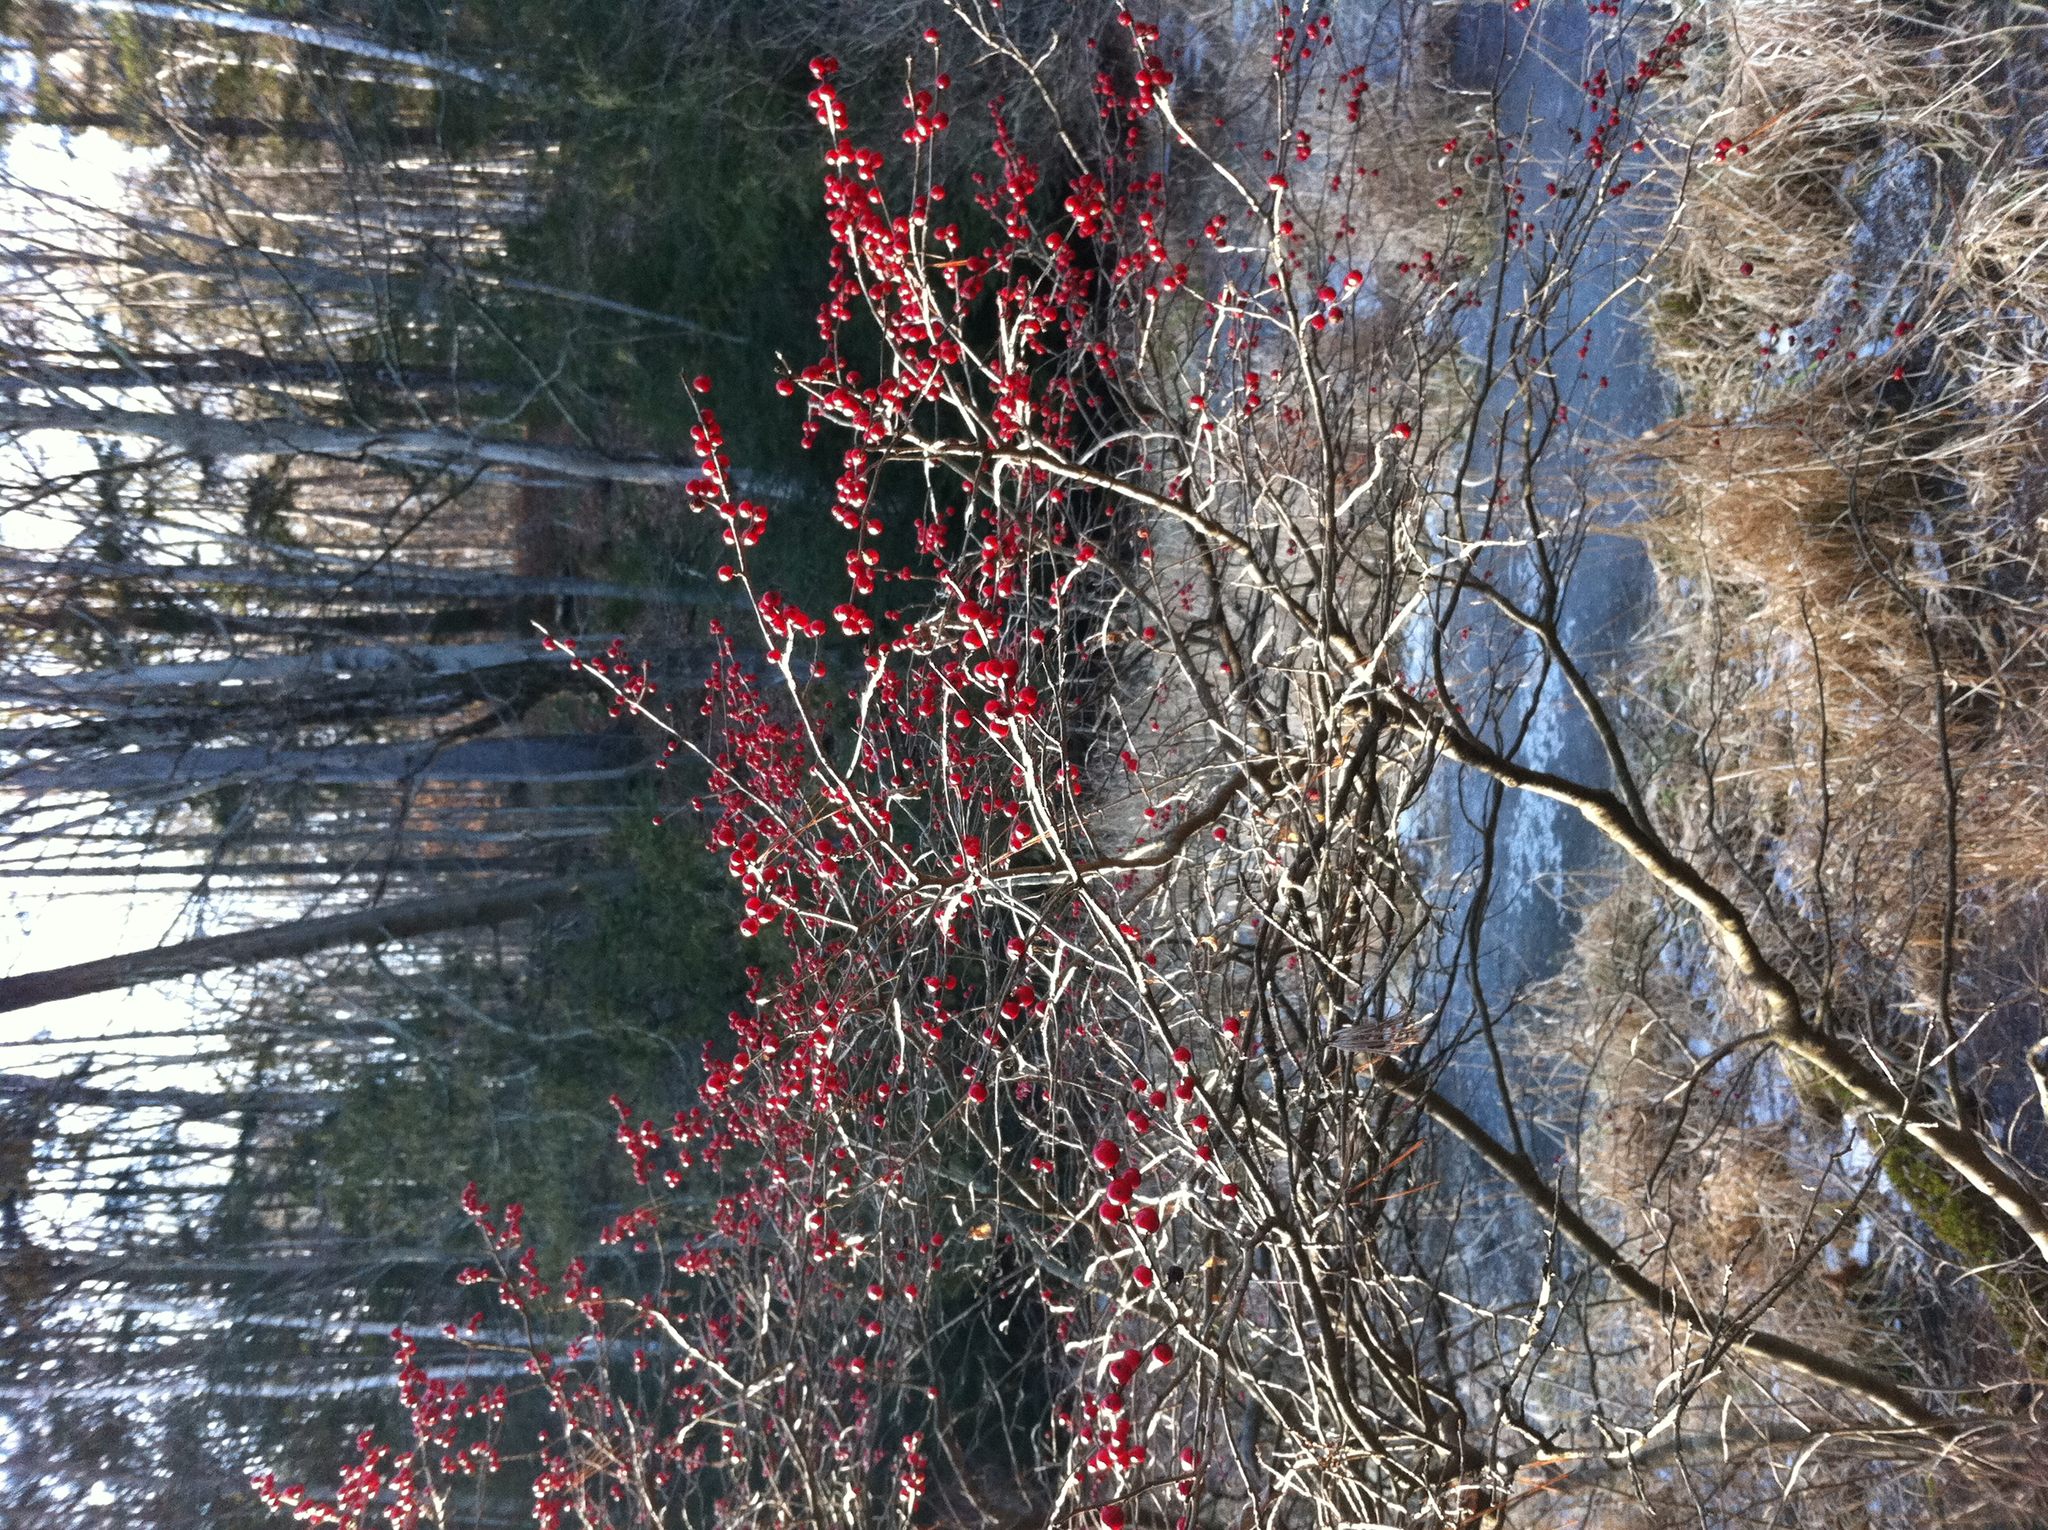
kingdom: Plantae
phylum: Tracheophyta
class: Magnoliopsida
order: Aquifoliales
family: Aquifoliaceae
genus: Ilex
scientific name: Ilex verticillata
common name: Virginia winterberry
